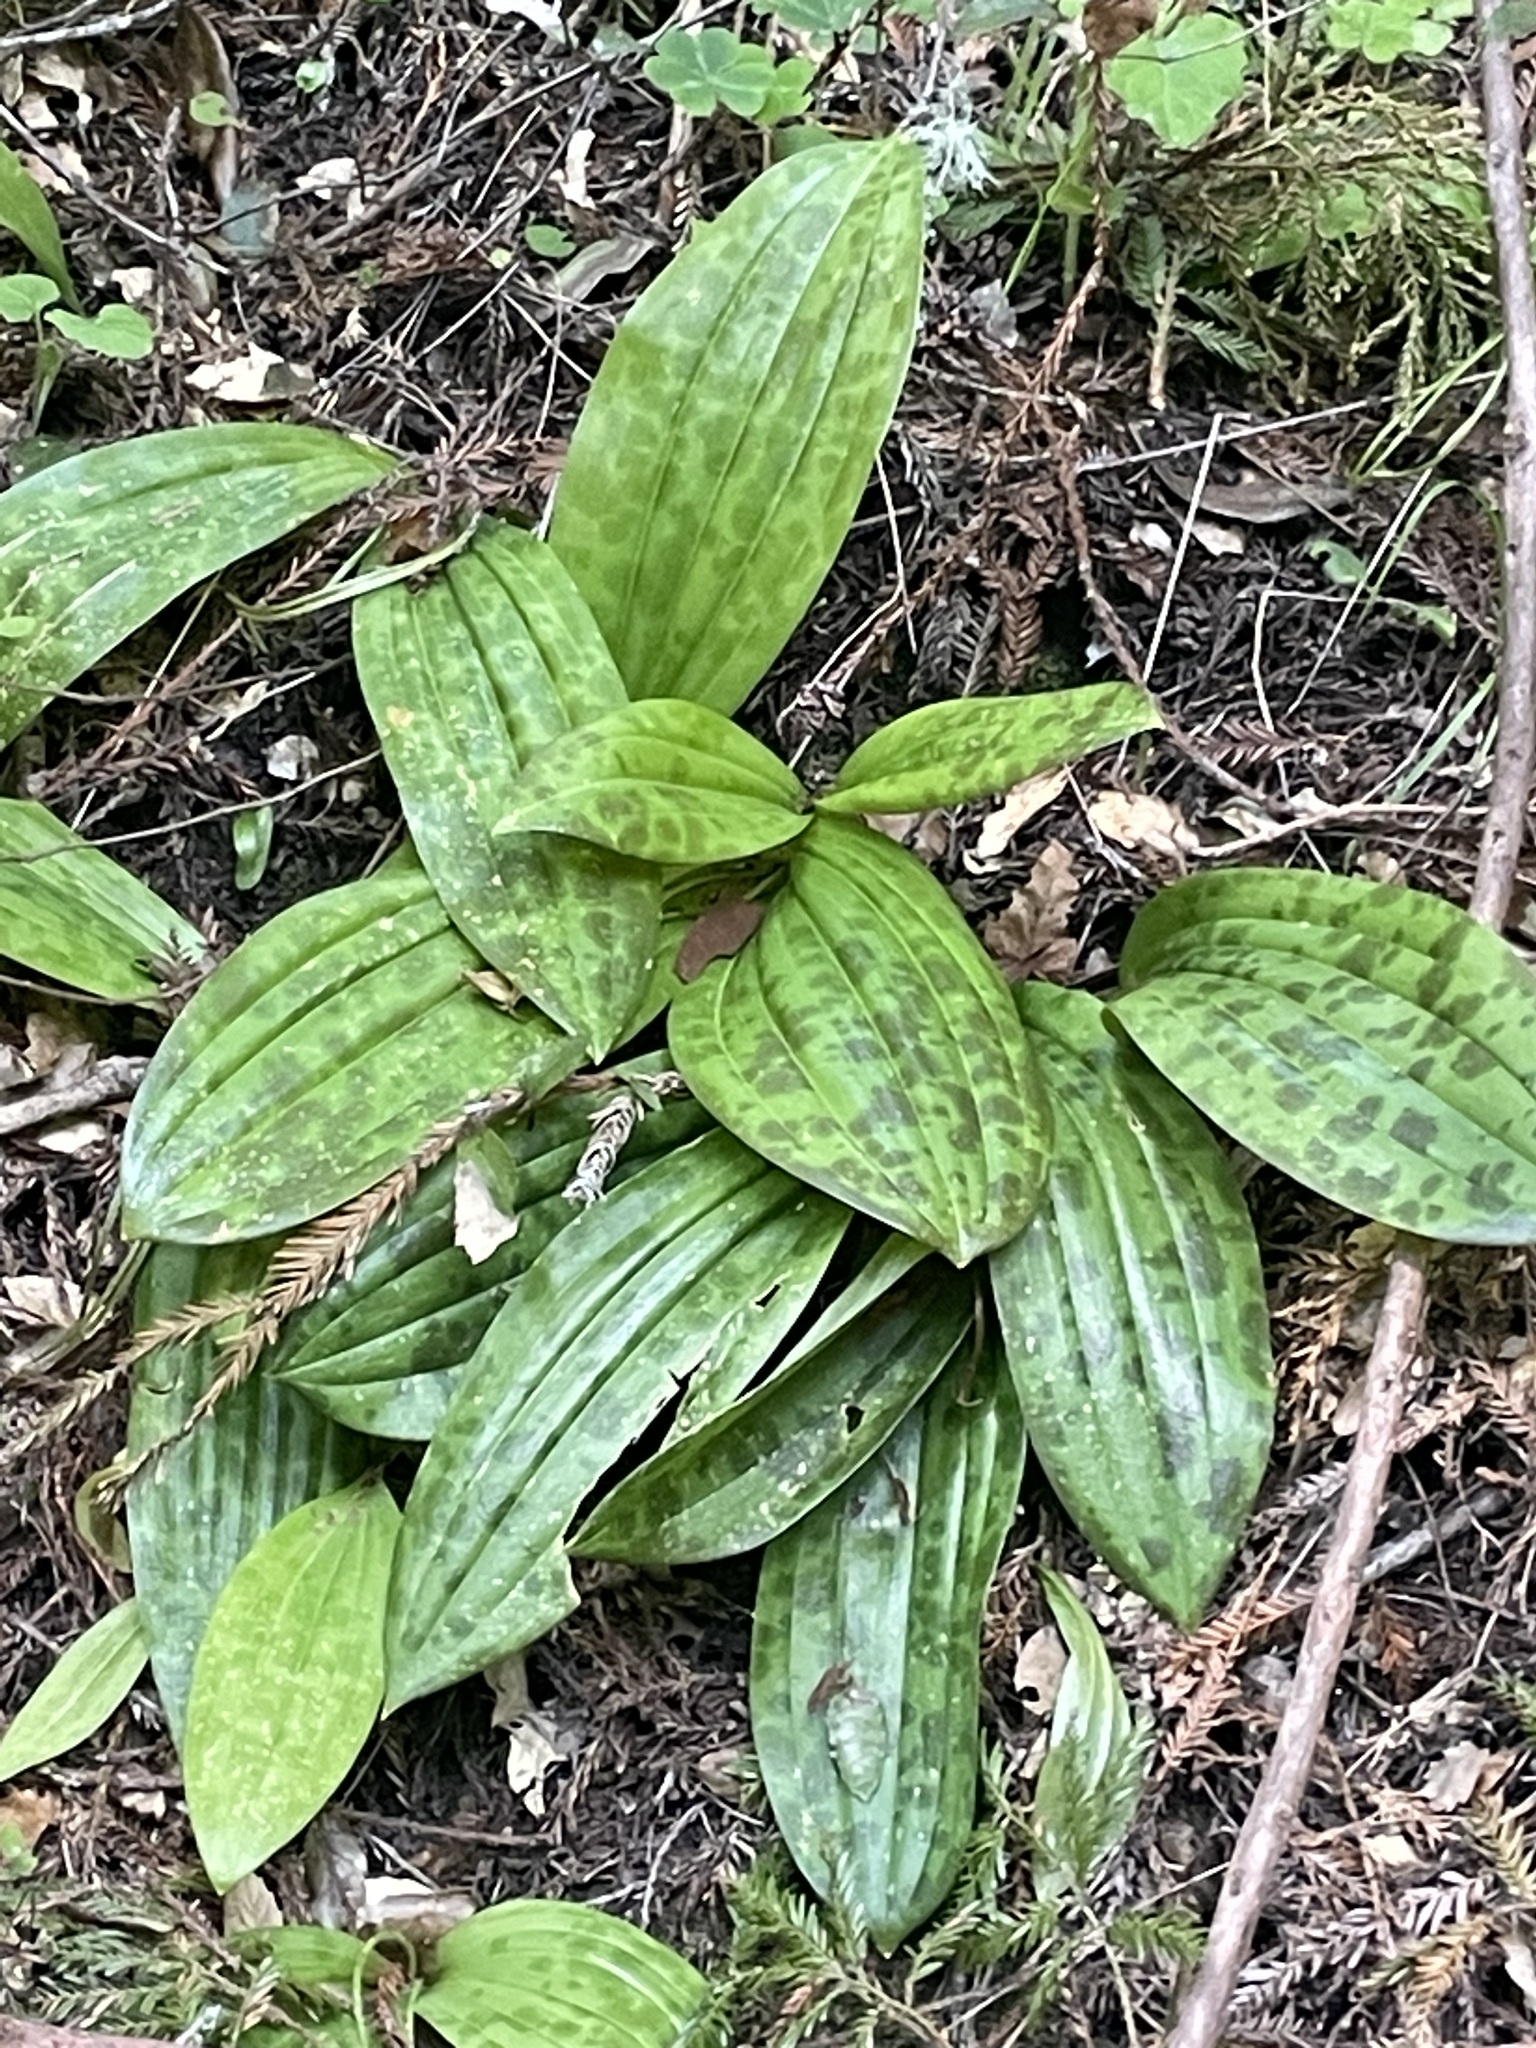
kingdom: Plantae
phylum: Tracheophyta
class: Liliopsida
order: Liliales
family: Liliaceae
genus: Scoliopus
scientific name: Scoliopus bigelovii
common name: Foetid adder's-tongue
